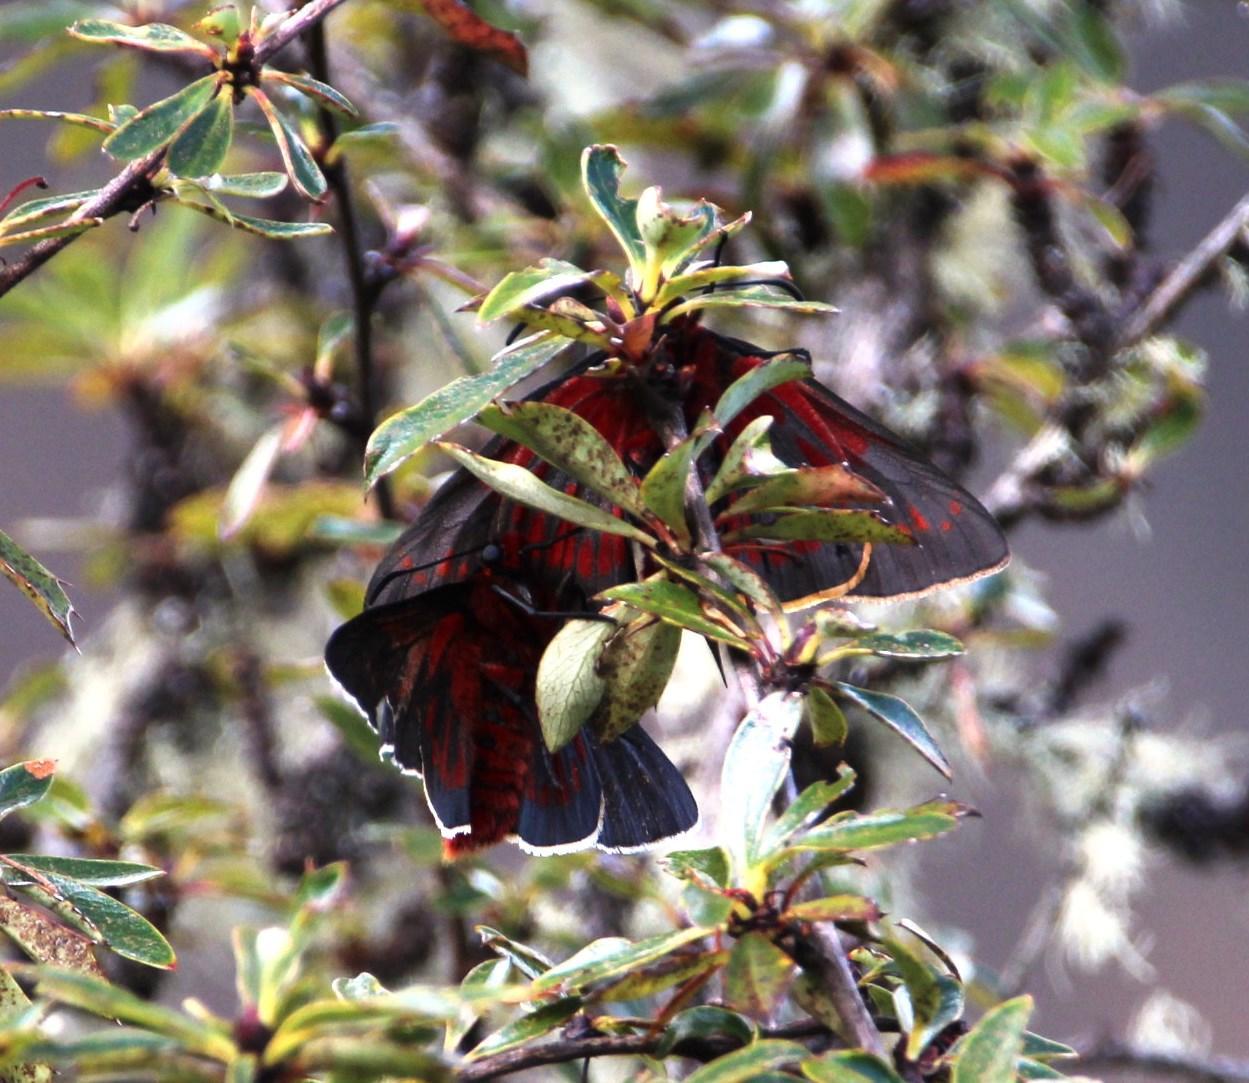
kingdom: Animalia
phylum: Arthropoda
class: Insecta
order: Lepidoptera
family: Hesperiidae
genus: Metardaris
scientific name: Metardaris cosinga
